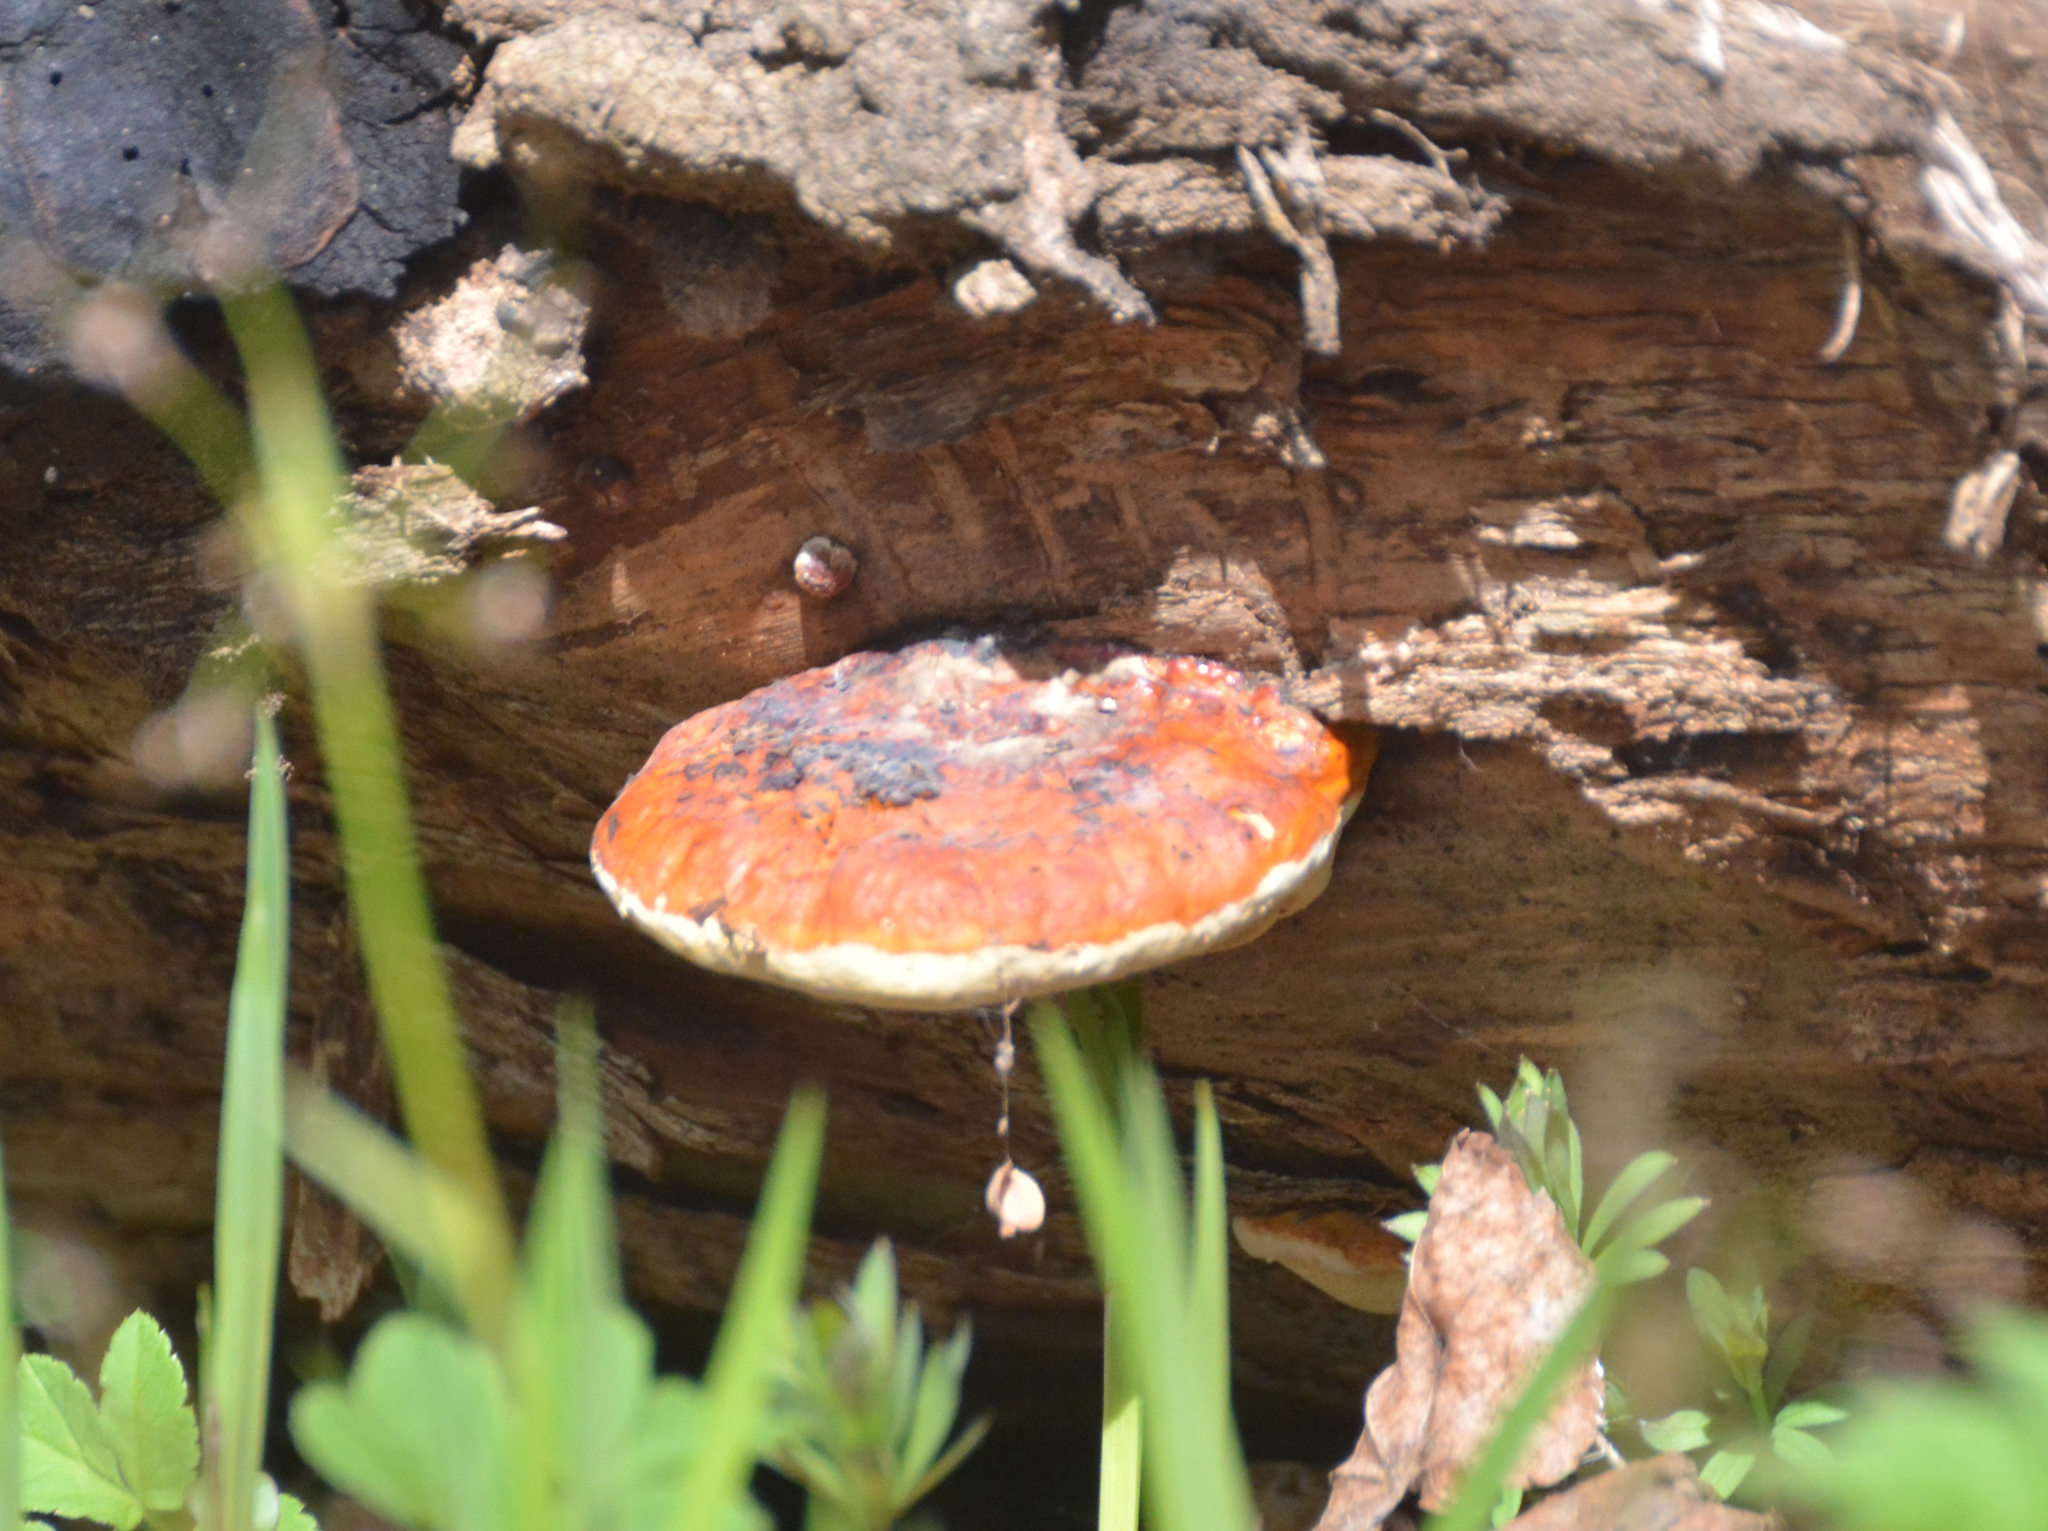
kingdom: Fungi
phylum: Basidiomycota
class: Agaricomycetes
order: Polyporales
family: Fomitopsidaceae
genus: Fomitopsis
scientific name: Fomitopsis pinicola
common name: Red-belted bracket
